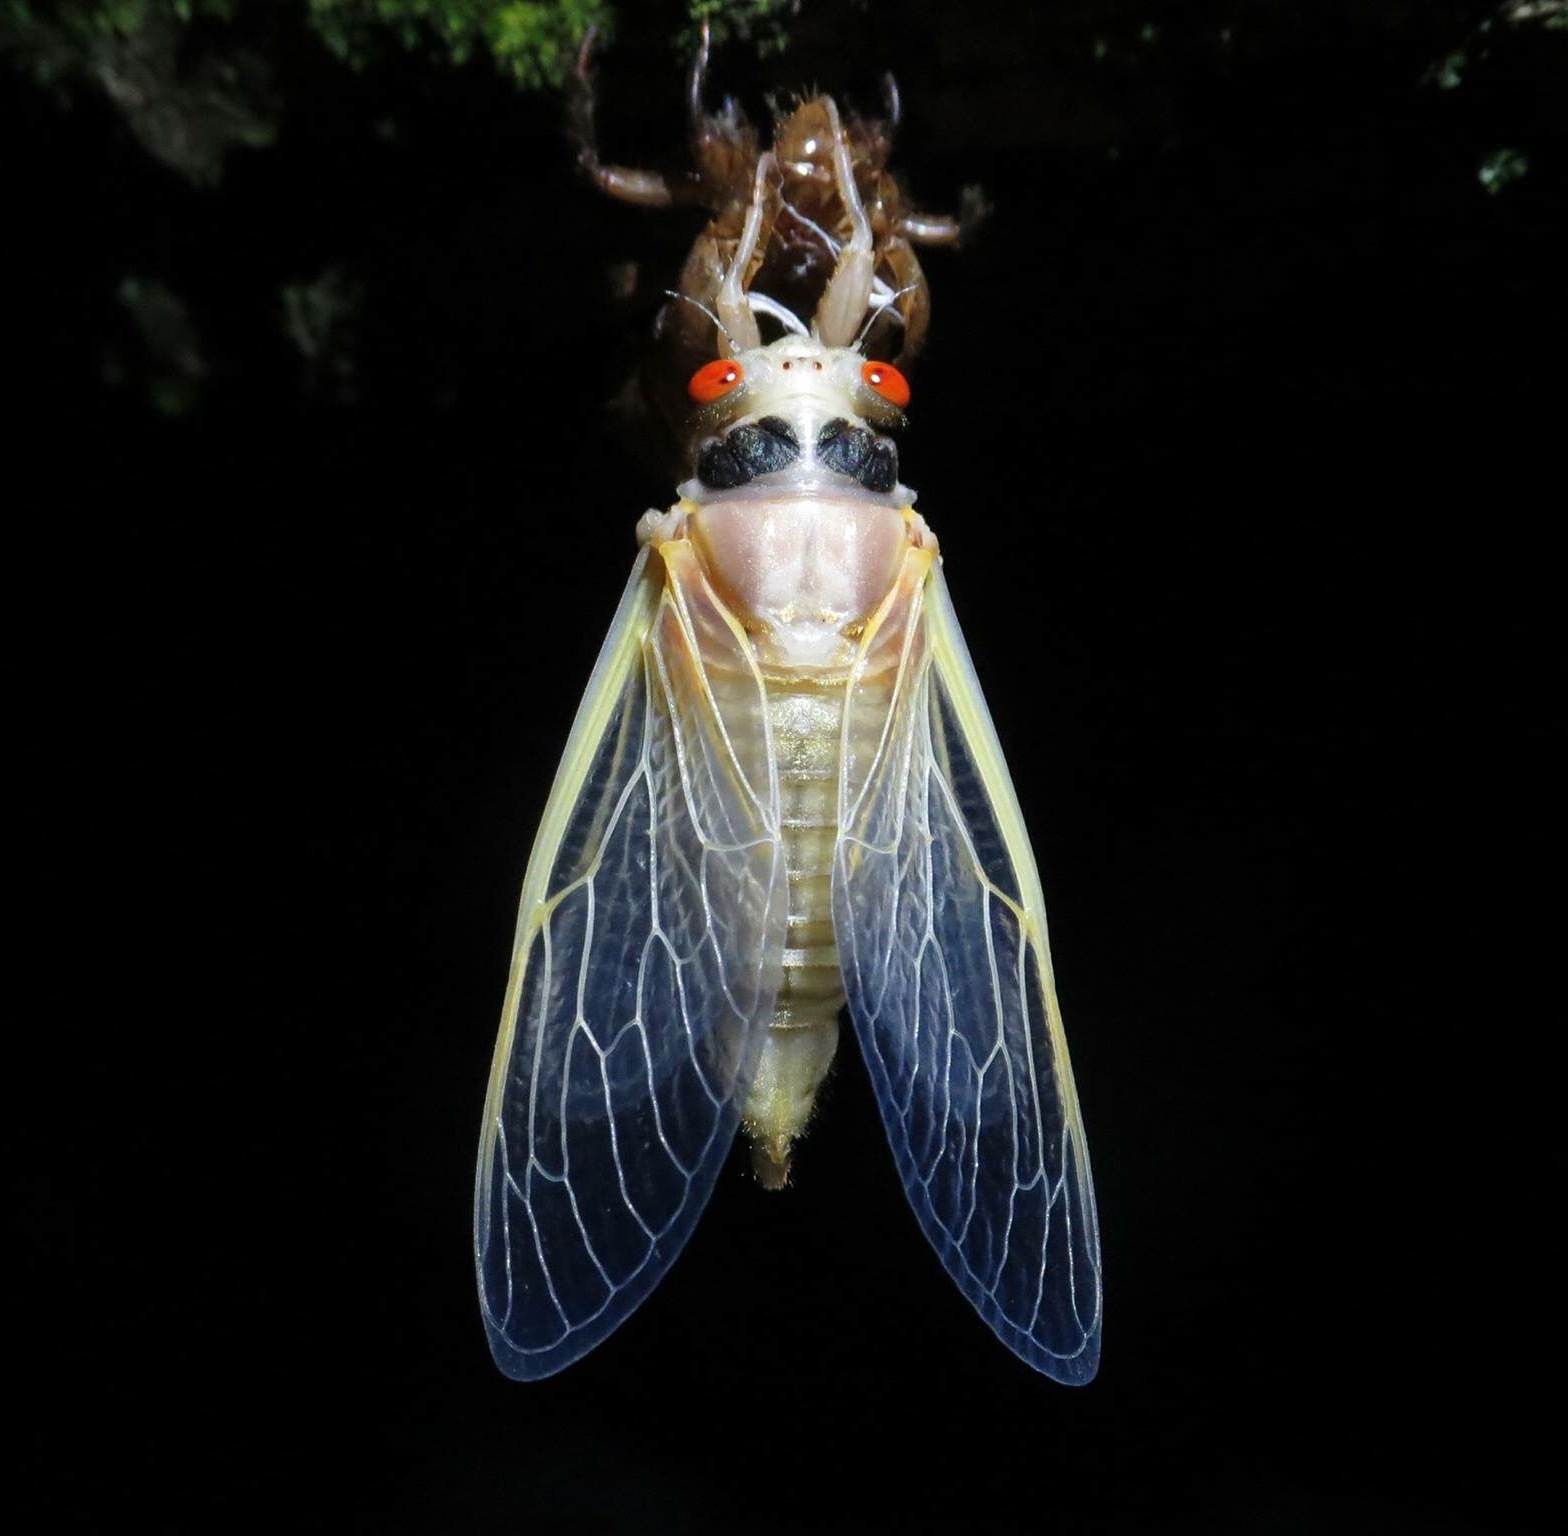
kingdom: Animalia
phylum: Arthropoda
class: Insecta
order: Hemiptera
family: Cicadidae
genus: Magicicada
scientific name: Magicicada
